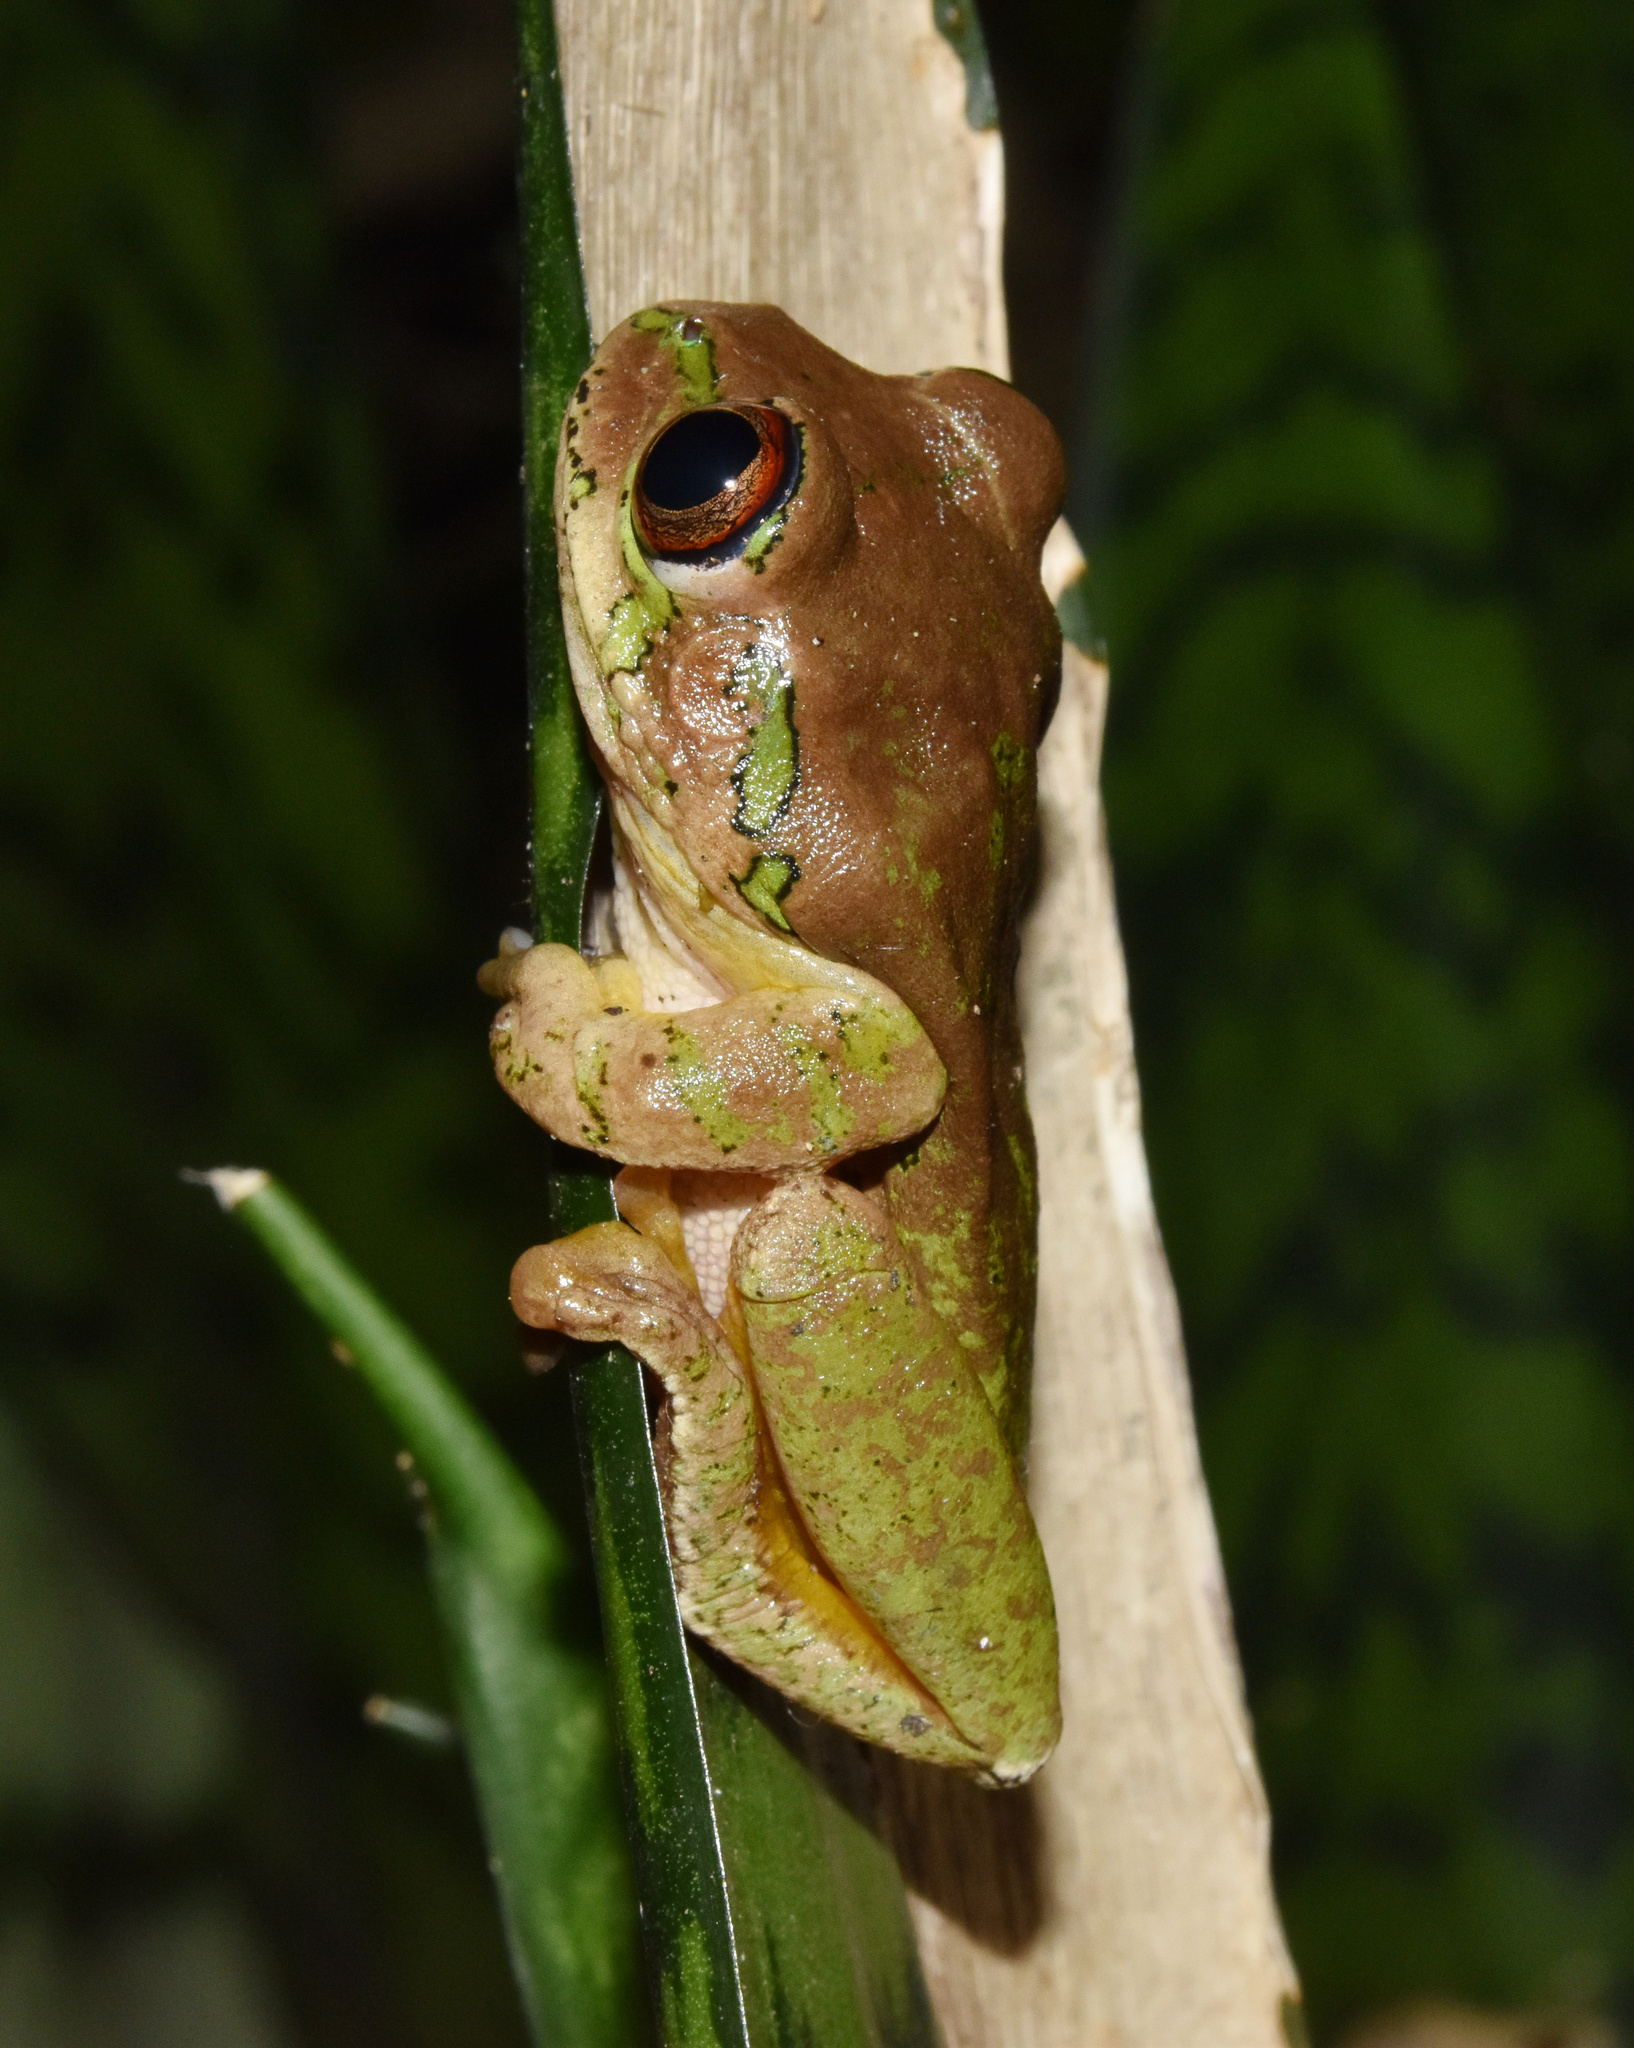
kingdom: Animalia
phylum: Chordata
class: Amphibia
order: Anura
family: Arthroleptidae
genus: Leptopelis
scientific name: Leptopelis natalensis
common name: Natal tree frog
